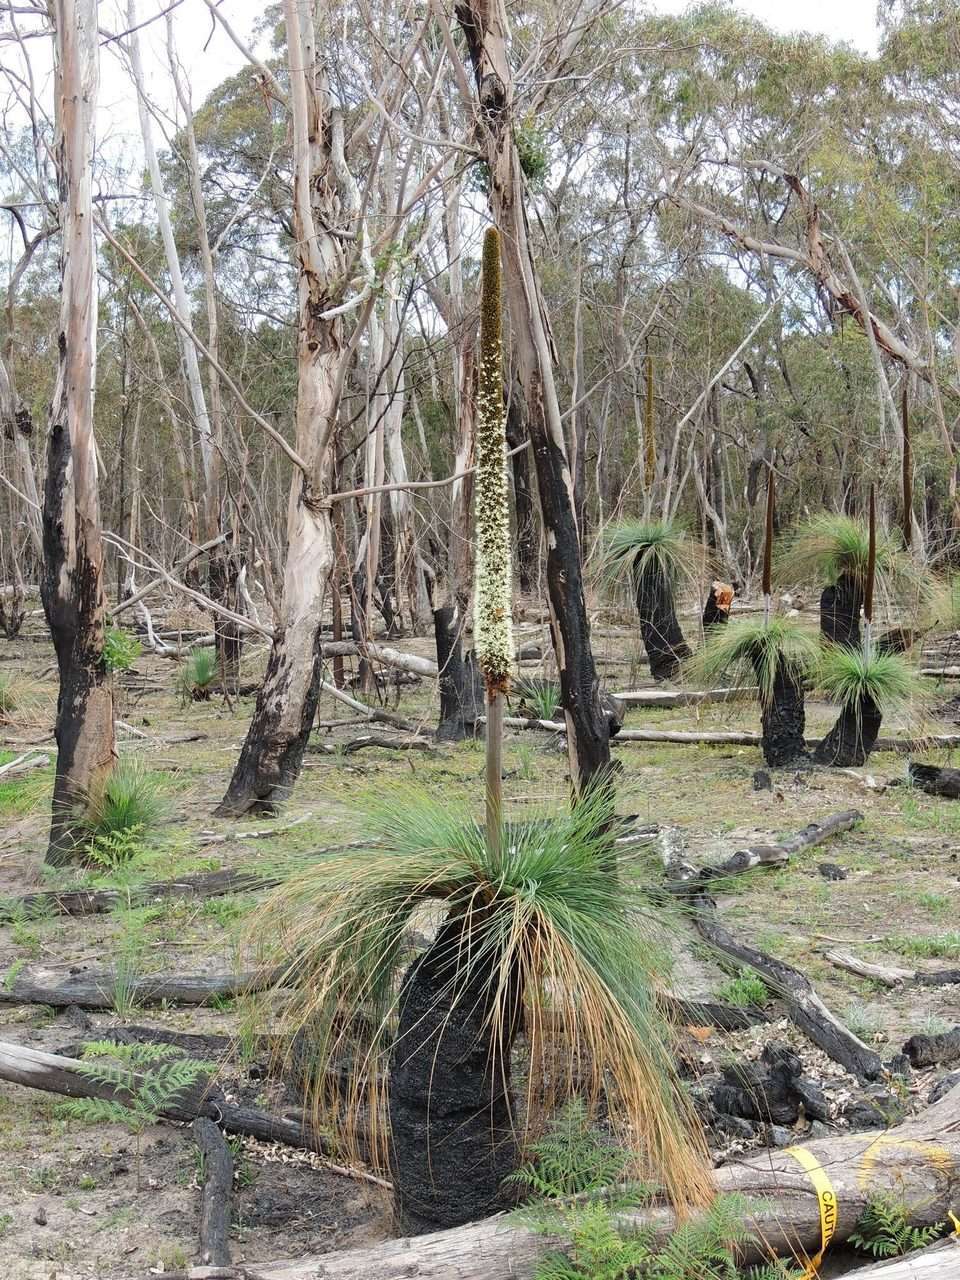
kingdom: Plantae
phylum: Tracheophyta
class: Liliopsida
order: Asparagales
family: Asphodelaceae
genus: Xanthorrhoea
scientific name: Xanthorrhoea australis
